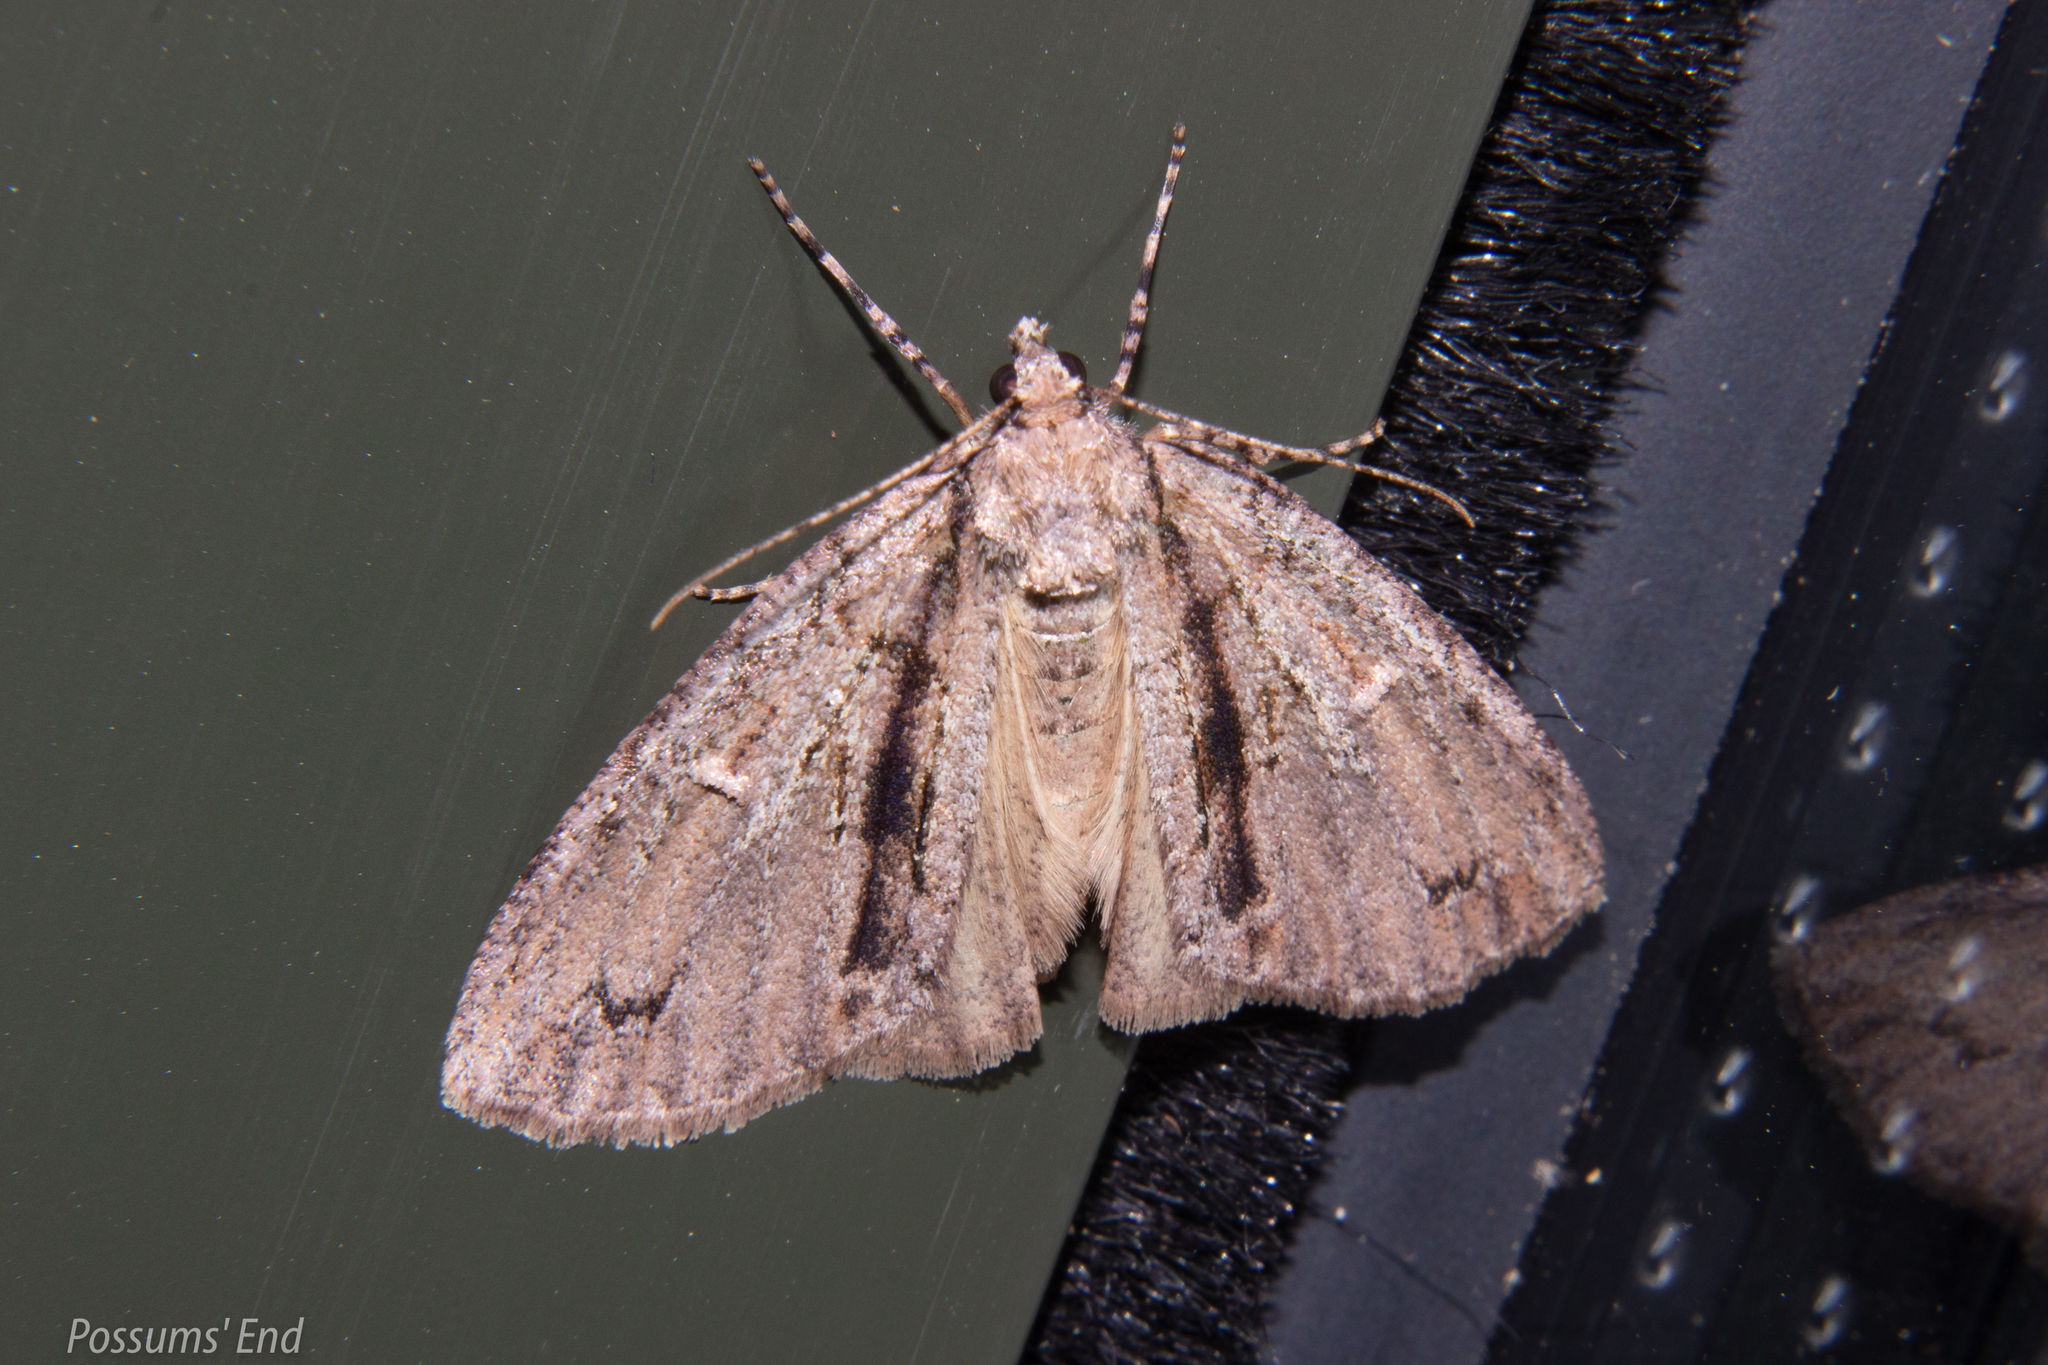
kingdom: Animalia
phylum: Arthropoda
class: Insecta
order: Lepidoptera
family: Geometridae
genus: Pseudocoremia
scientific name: Pseudocoremia suavis
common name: Common forest looper
